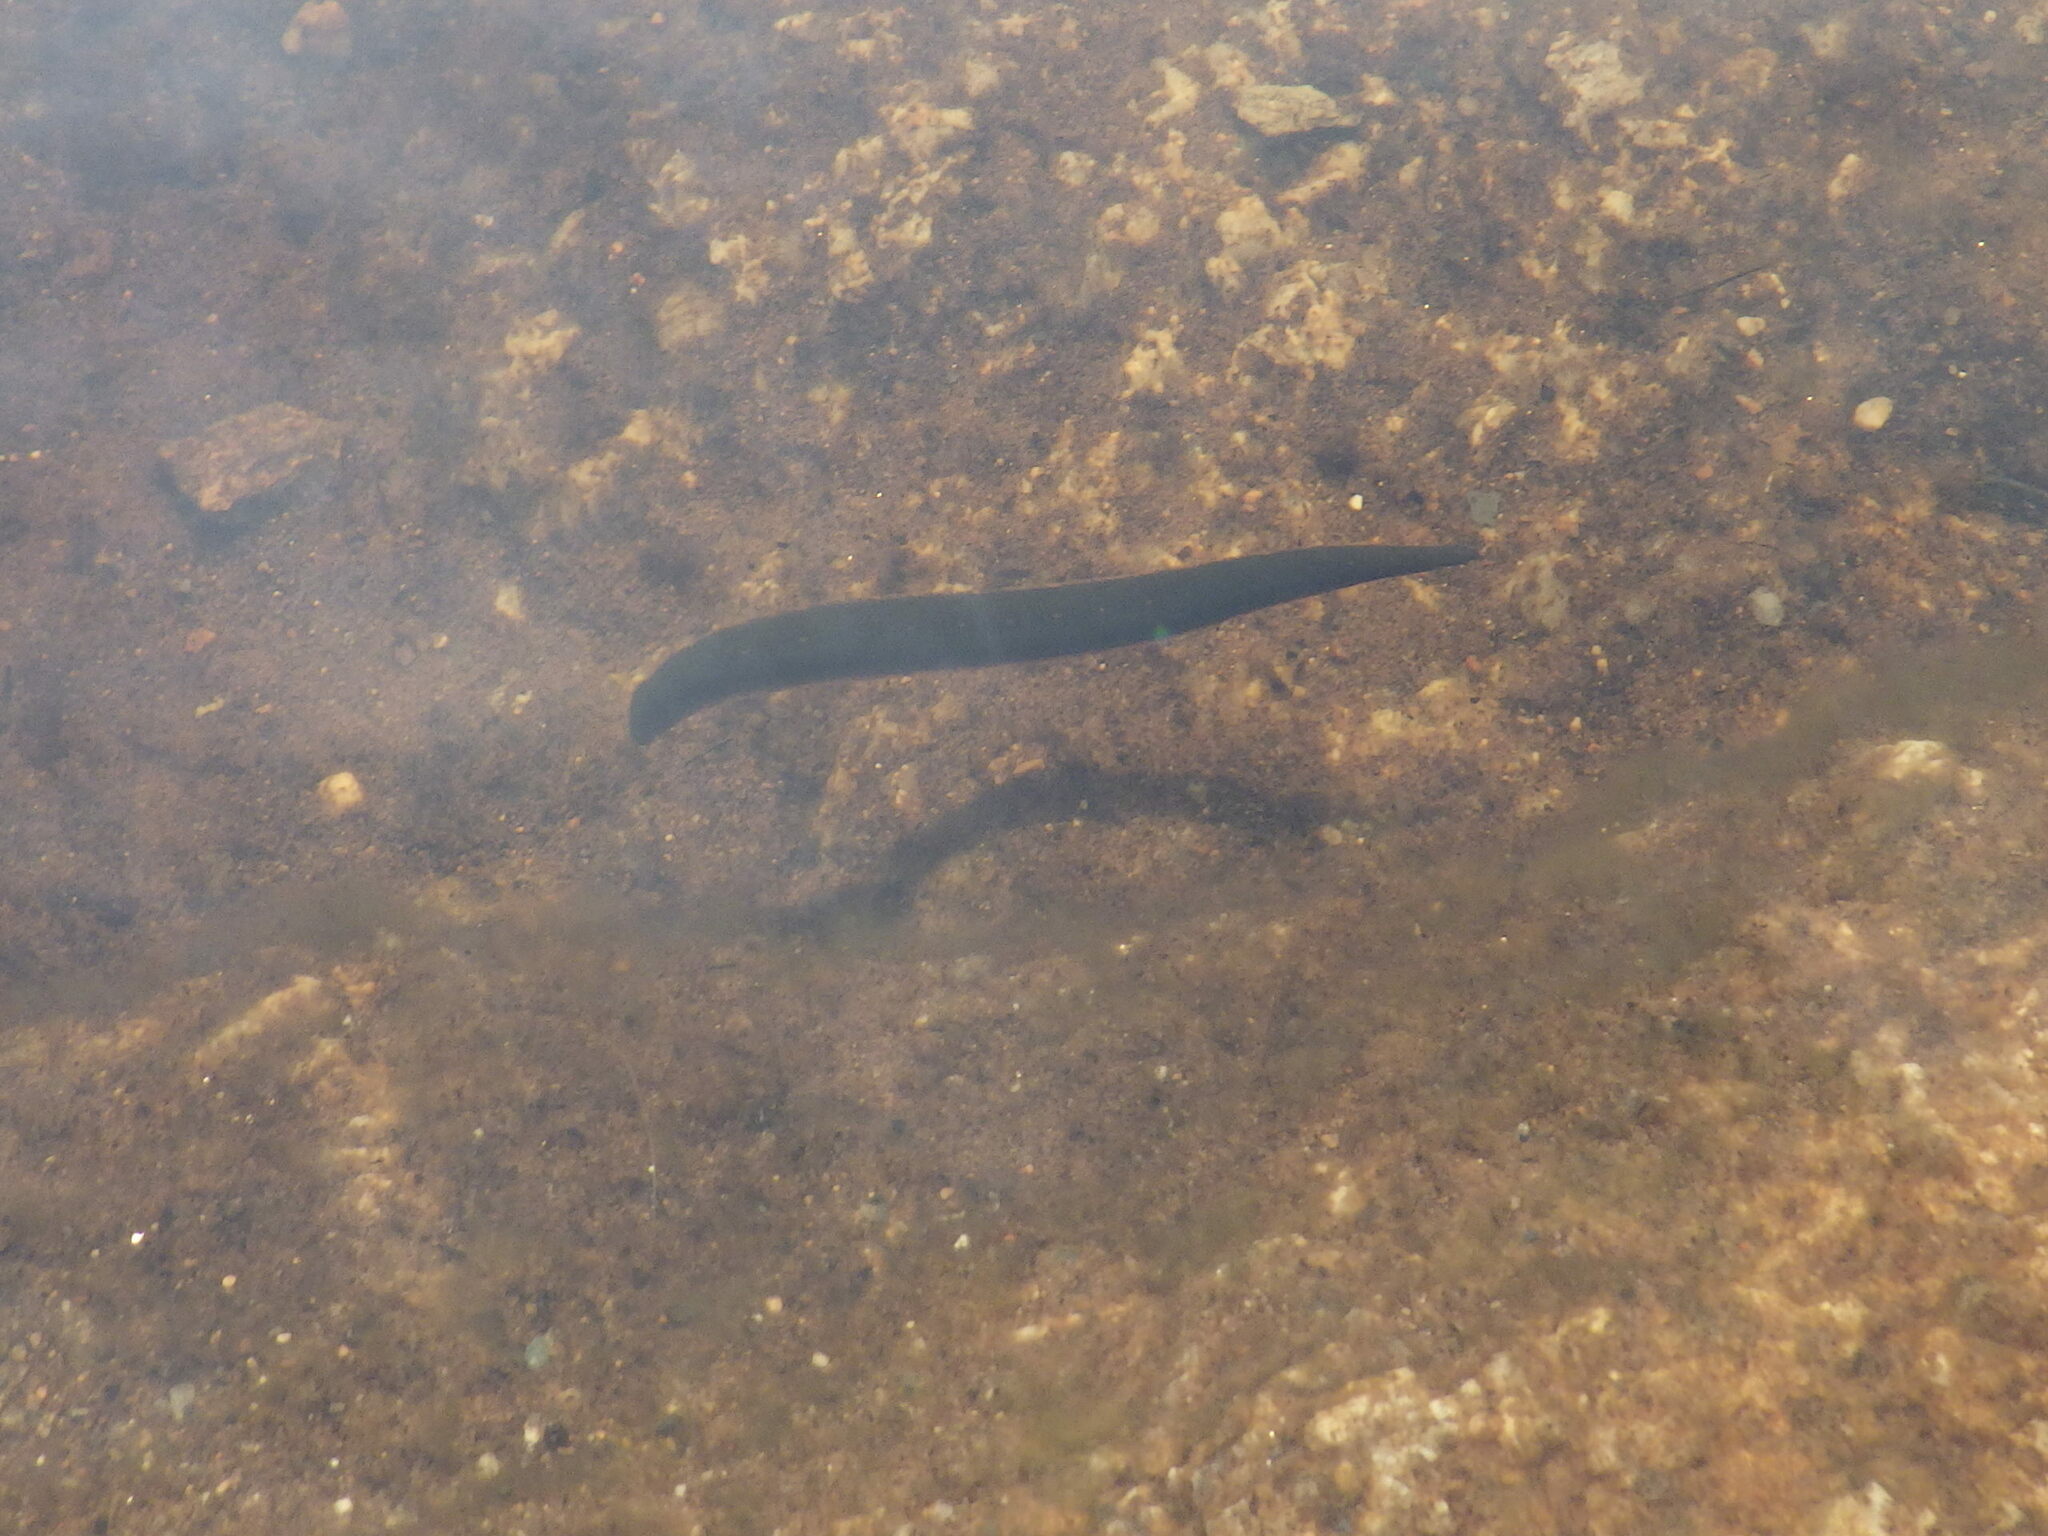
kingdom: Animalia
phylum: Annelida
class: Clitellata
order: Arhynchobdellida
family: Hirudinidae
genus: Macrobdella
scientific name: Macrobdella decora
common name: North american leech
